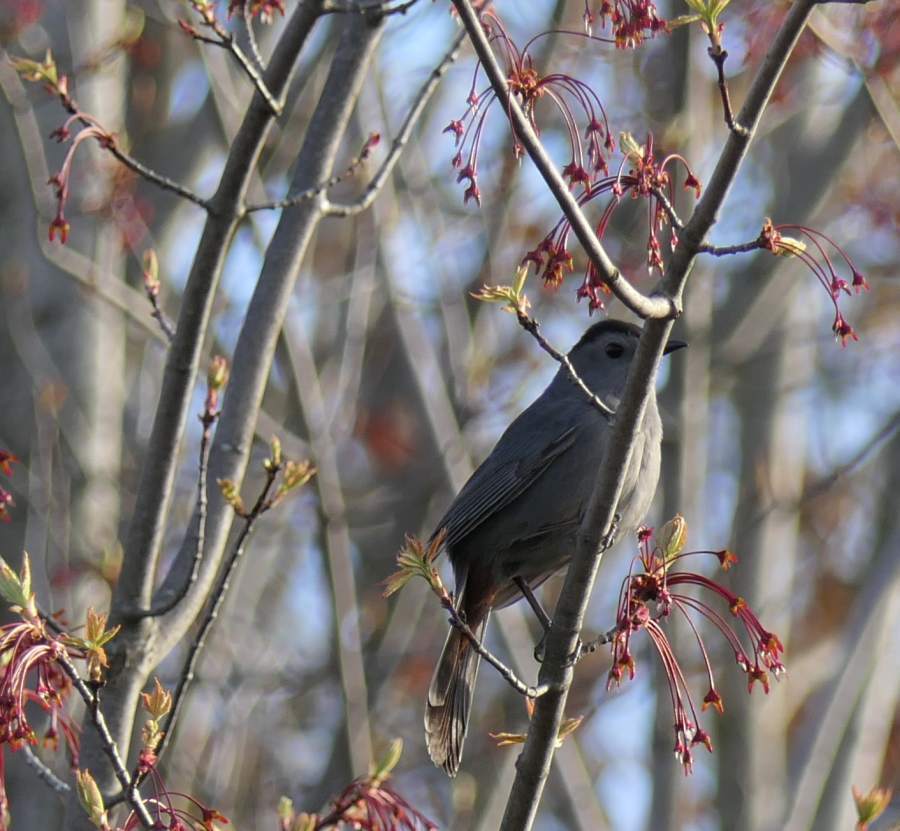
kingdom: Animalia
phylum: Chordata
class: Aves
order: Passeriformes
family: Mimidae
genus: Dumetella
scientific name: Dumetella carolinensis
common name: Gray catbird
